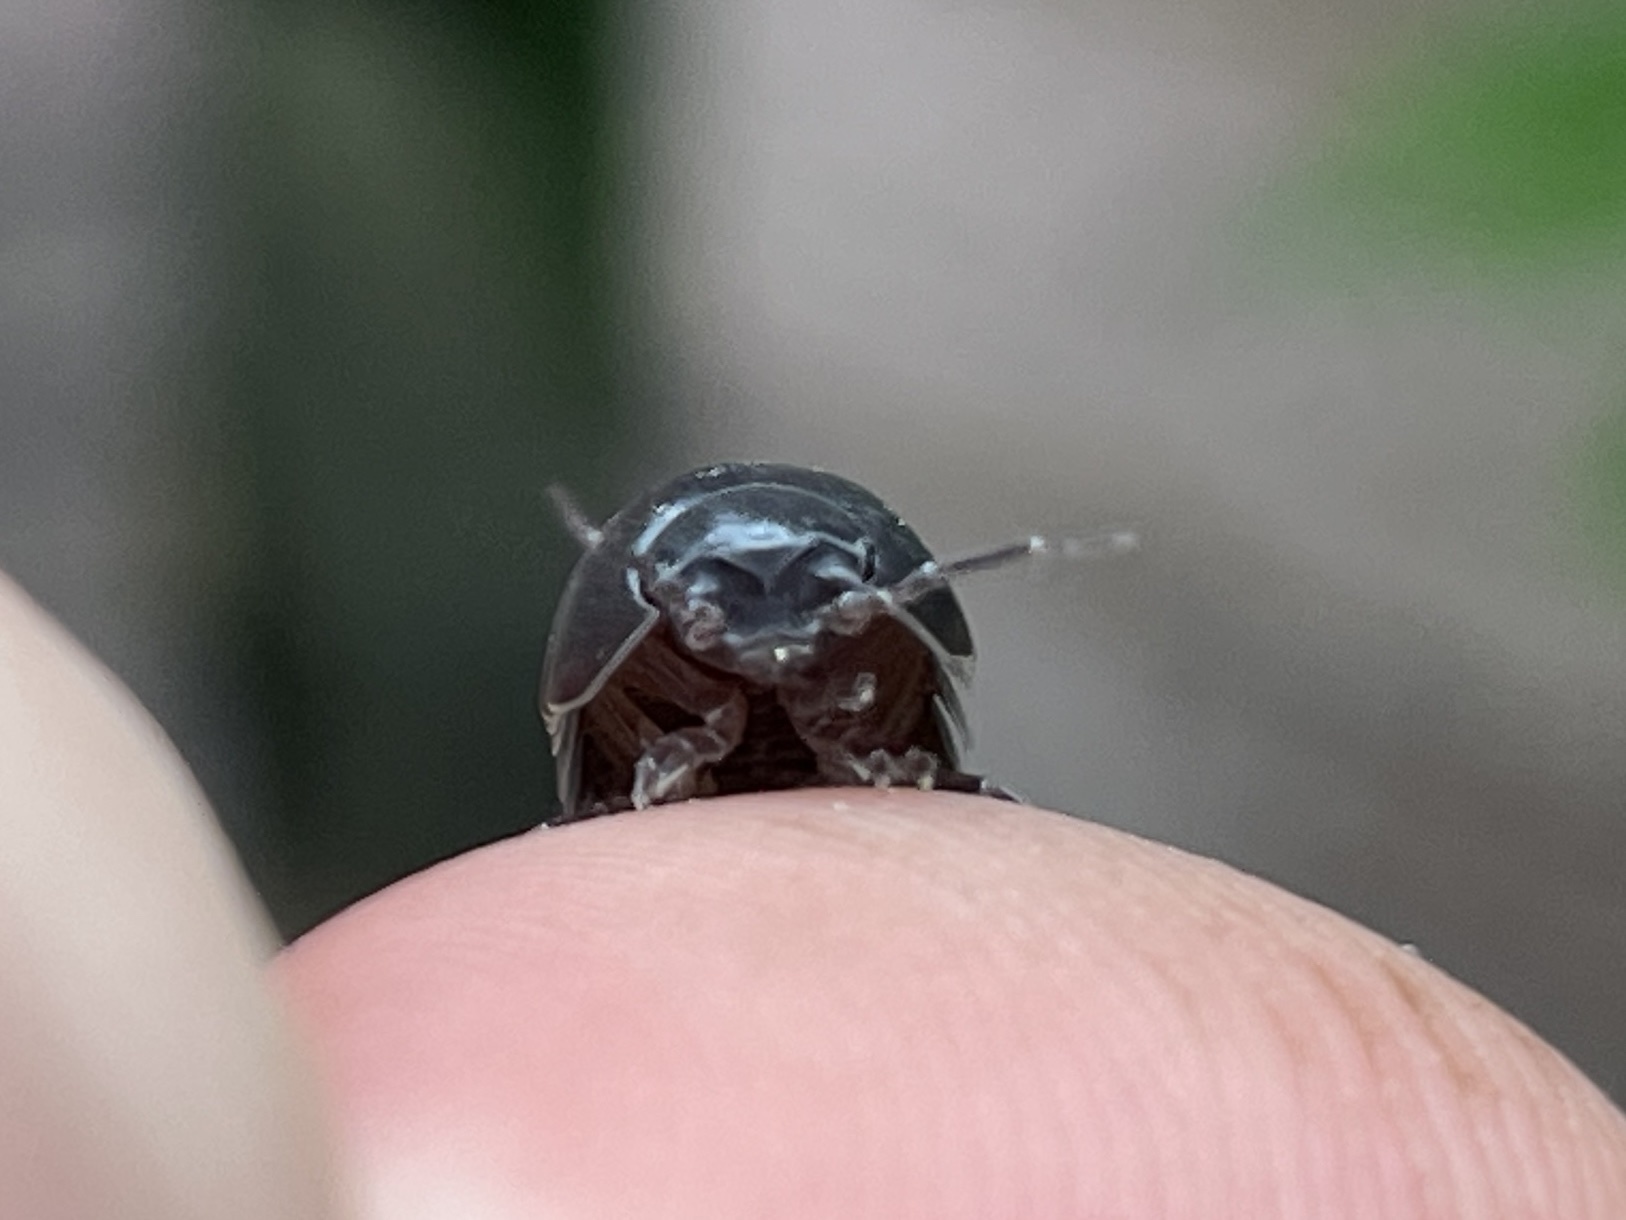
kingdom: Animalia
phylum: Arthropoda
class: Malacostraca
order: Isopoda
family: Armadillidiidae
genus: Armadillidium
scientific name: Armadillidium vulgare
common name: Common pill woodlouse
